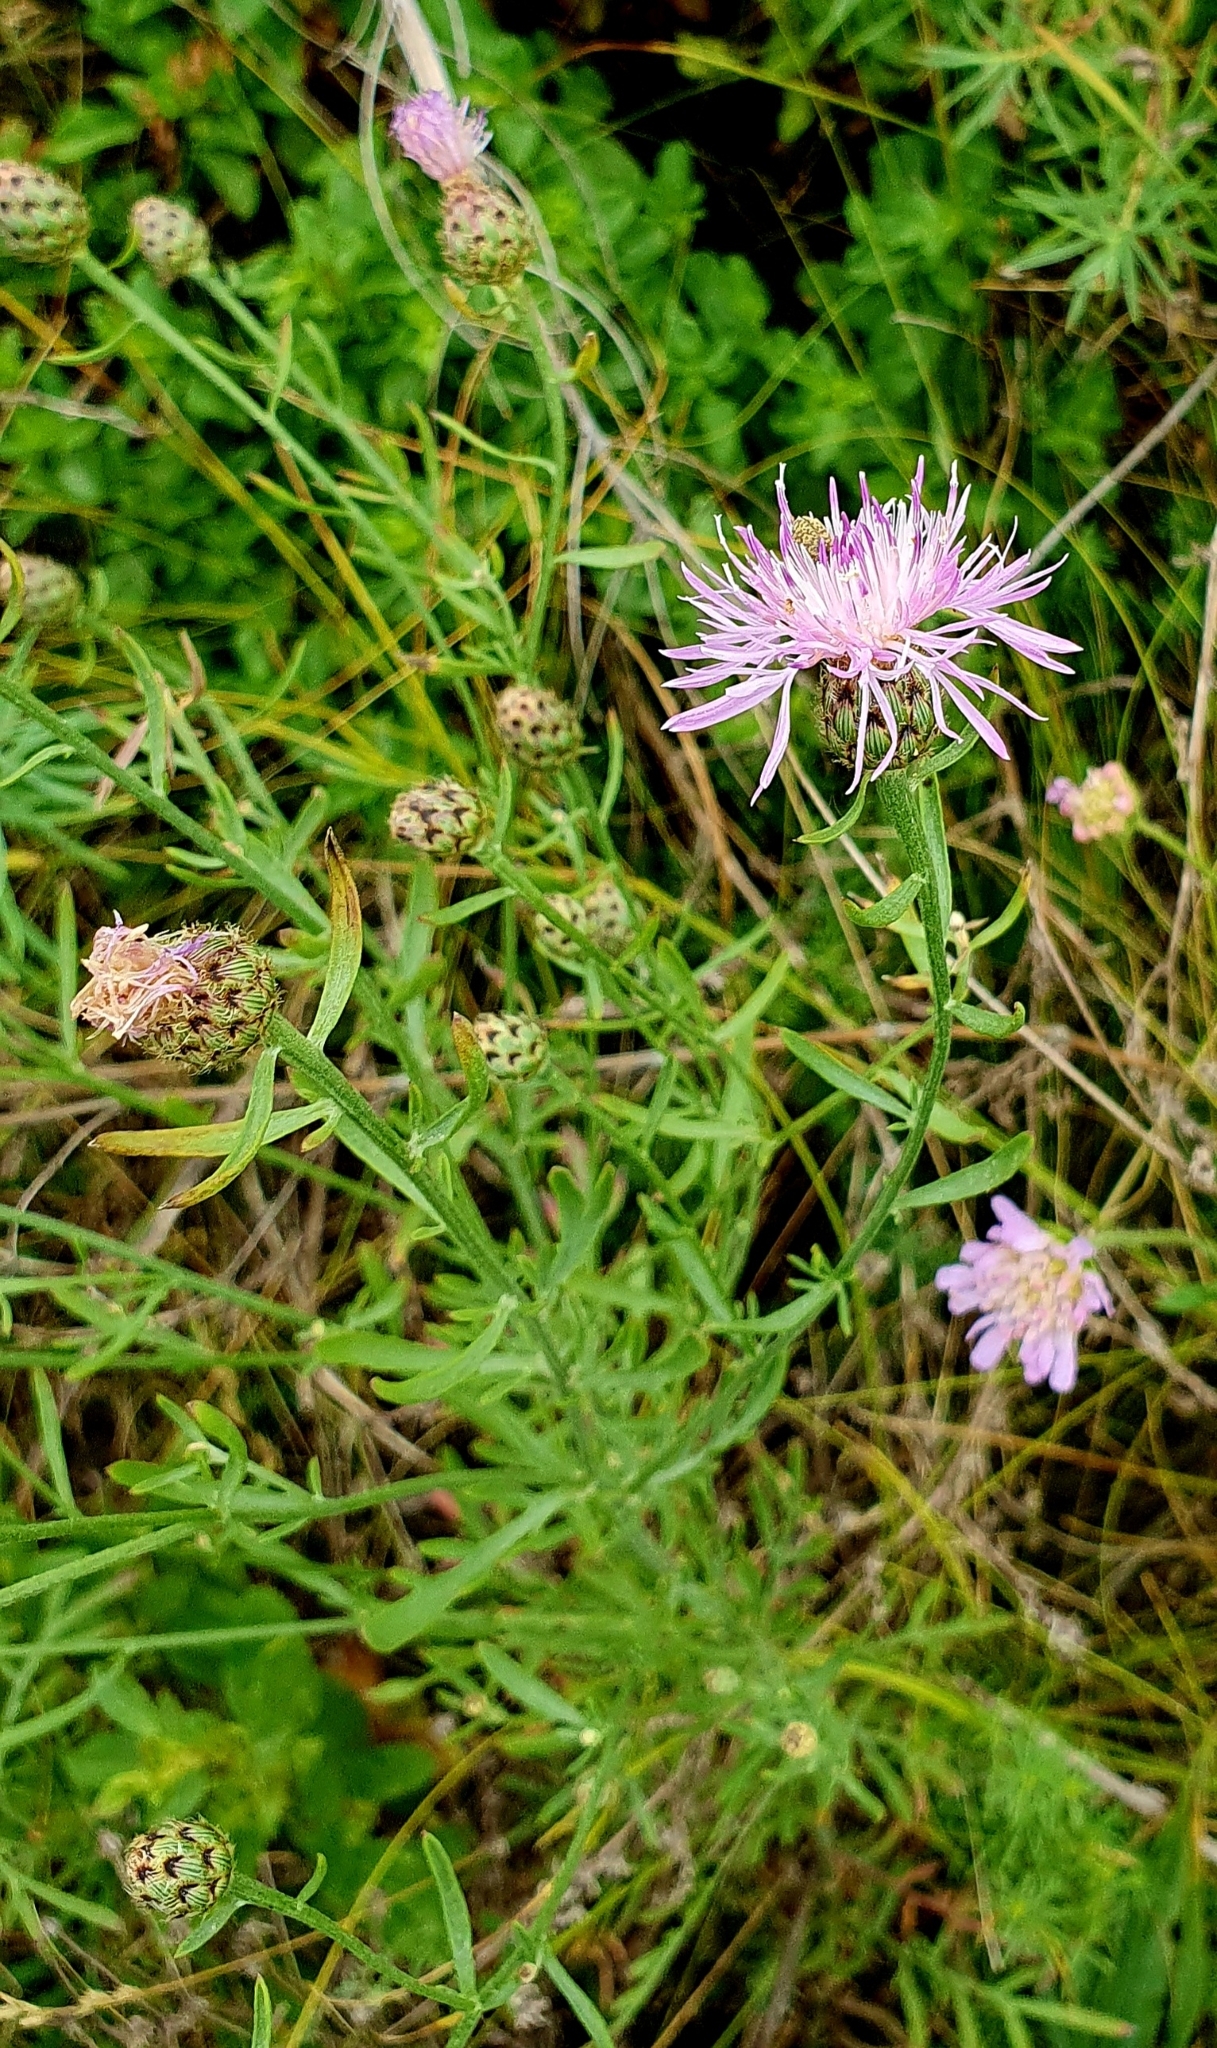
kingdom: Plantae
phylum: Tracheophyta
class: Magnoliopsida
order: Asterales
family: Asteraceae
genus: Centaurea
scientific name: Centaurea stoebe
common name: Spotted knapweed
